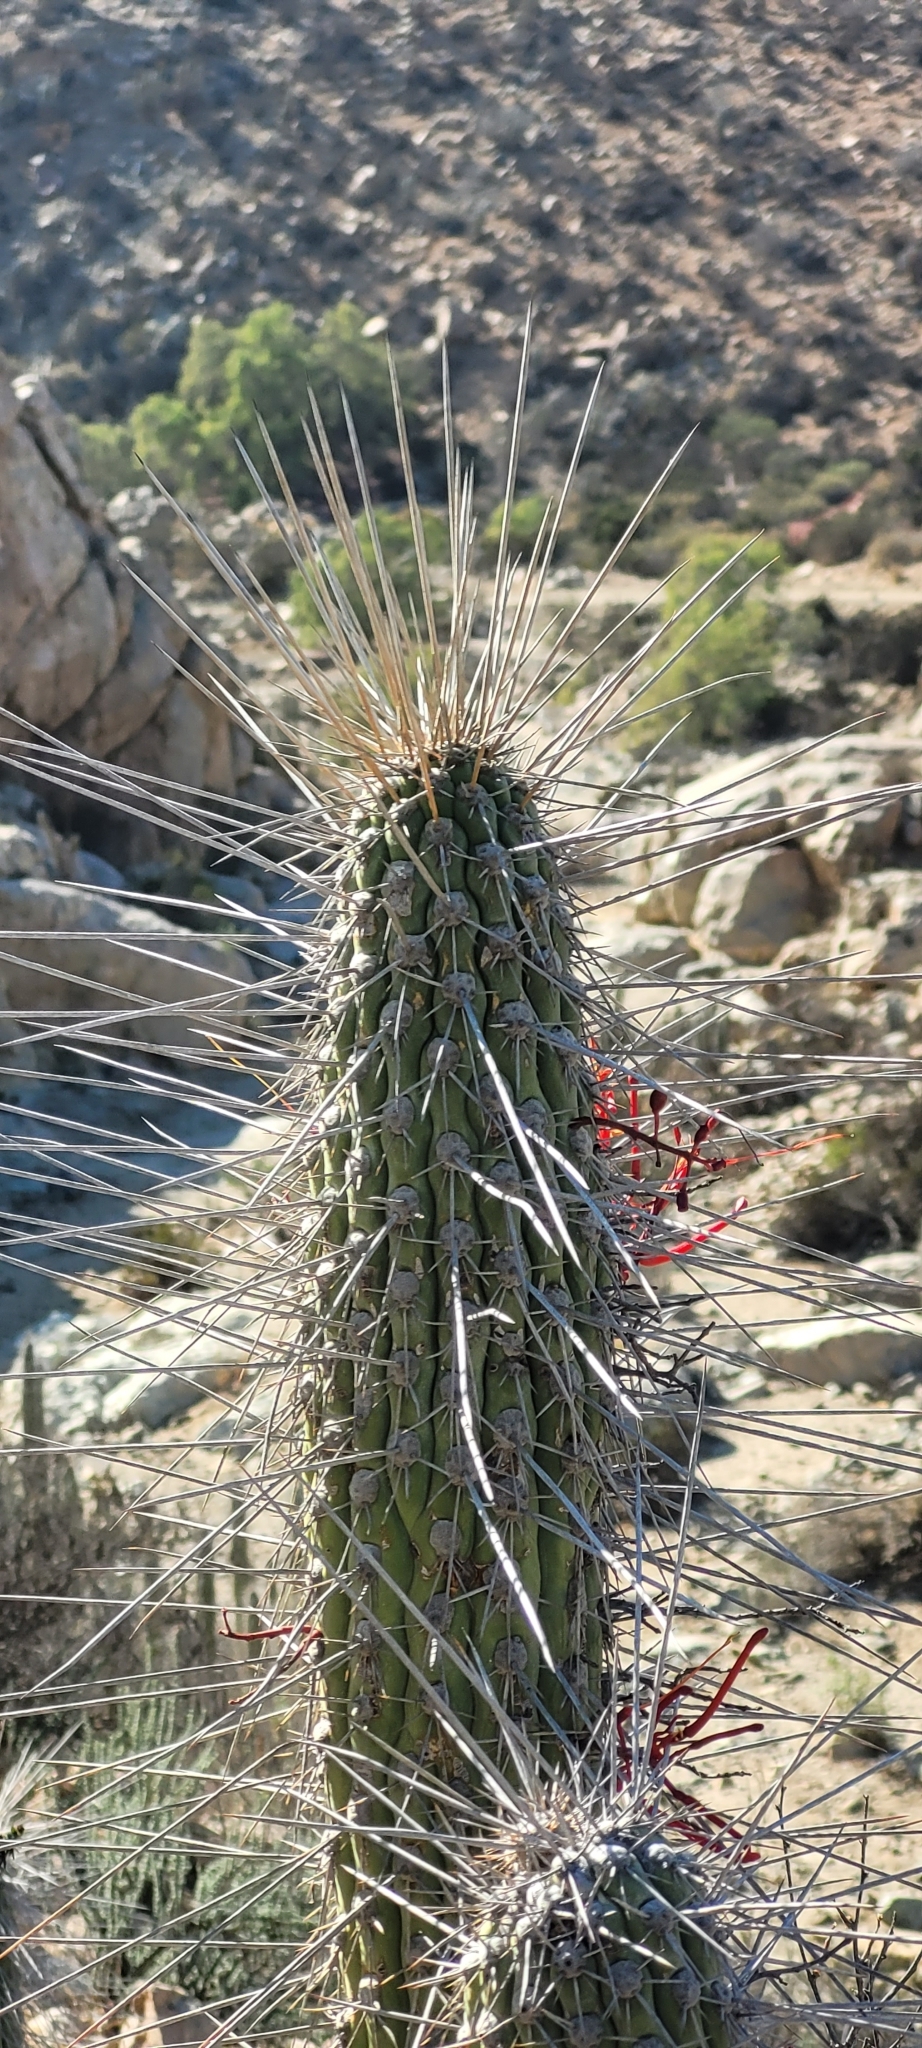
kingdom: Plantae
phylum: Tracheophyta
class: Magnoliopsida
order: Caryophyllales
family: Cactaceae
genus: Eulychnia
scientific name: Eulychnia acida
